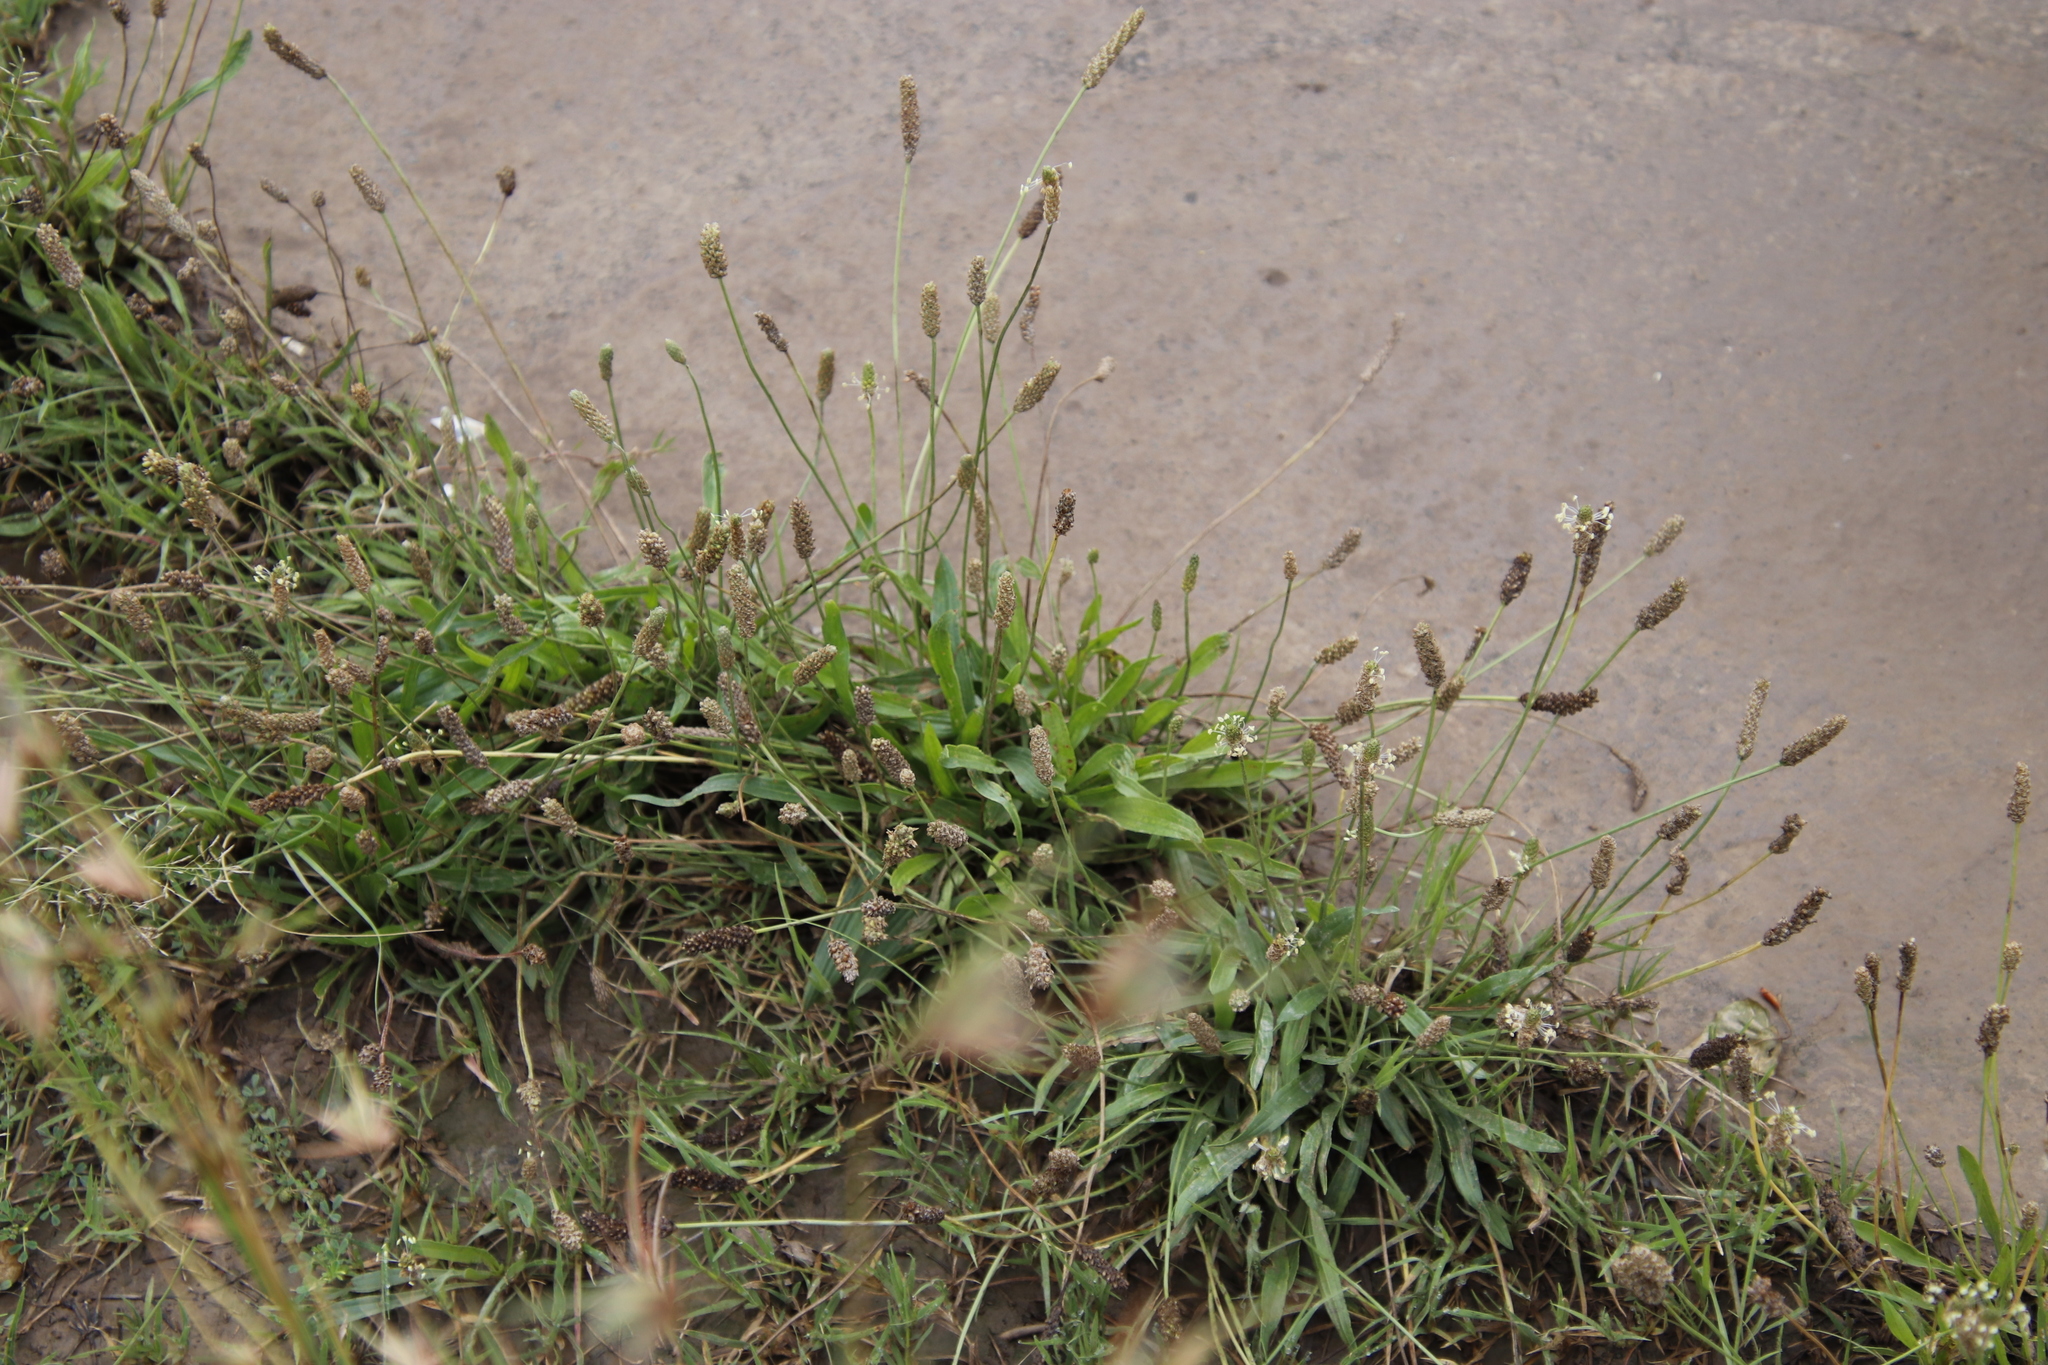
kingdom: Plantae
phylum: Tracheophyta
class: Magnoliopsida
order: Lamiales
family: Plantaginaceae
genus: Plantago
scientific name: Plantago lanceolata
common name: Ribwort plantain
